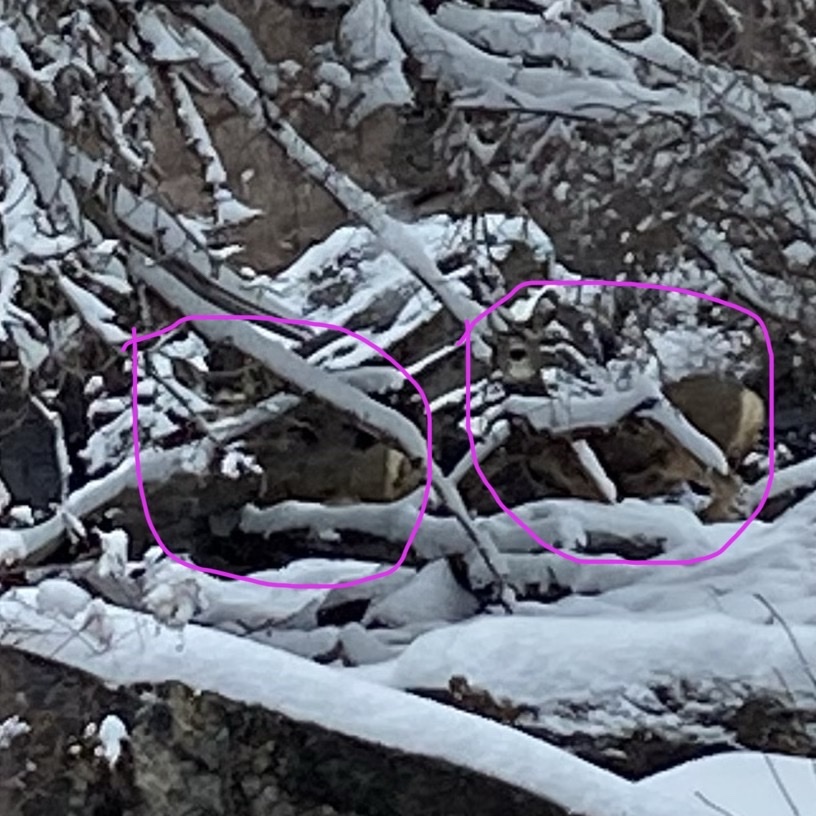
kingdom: Animalia
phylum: Chordata
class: Mammalia
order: Artiodactyla
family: Cervidae
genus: Odocoileus
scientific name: Odocoileus hemionus
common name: Mule deer
